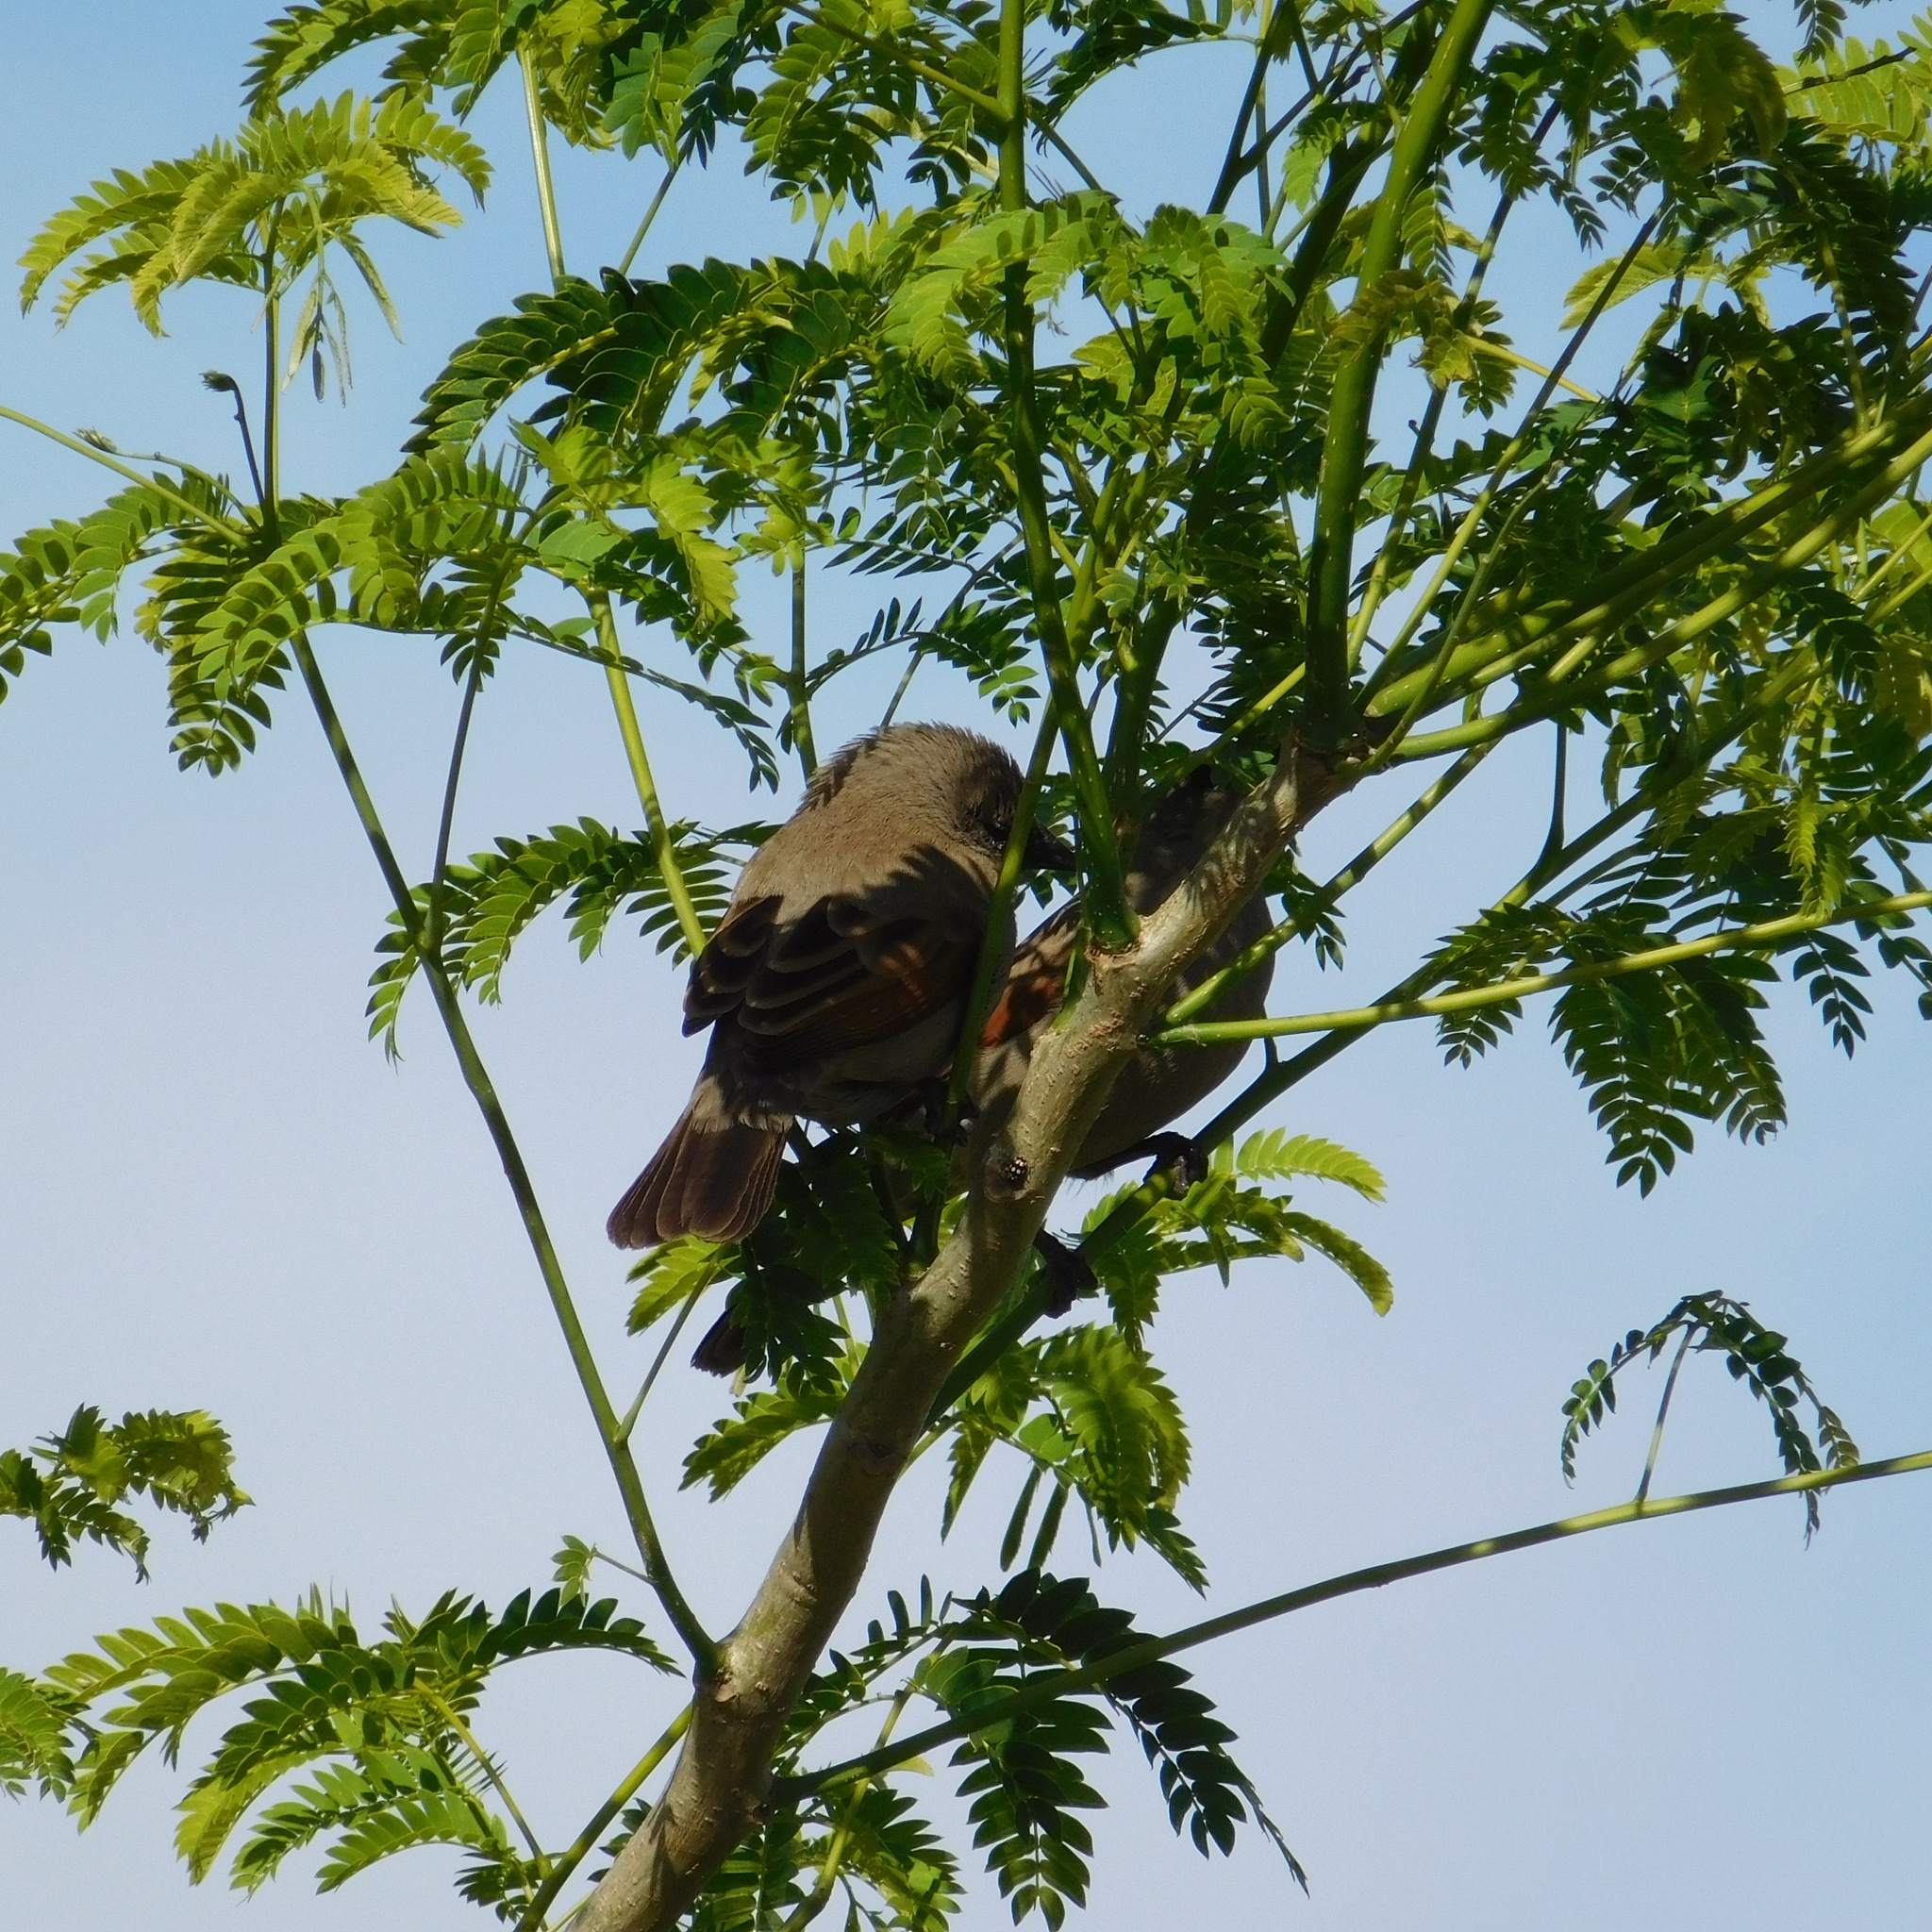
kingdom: Animalia
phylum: Chordata
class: Aves
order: Passeriformes
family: Icteridae
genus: Agelaioides
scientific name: Agelaioides badius
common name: Baywing
